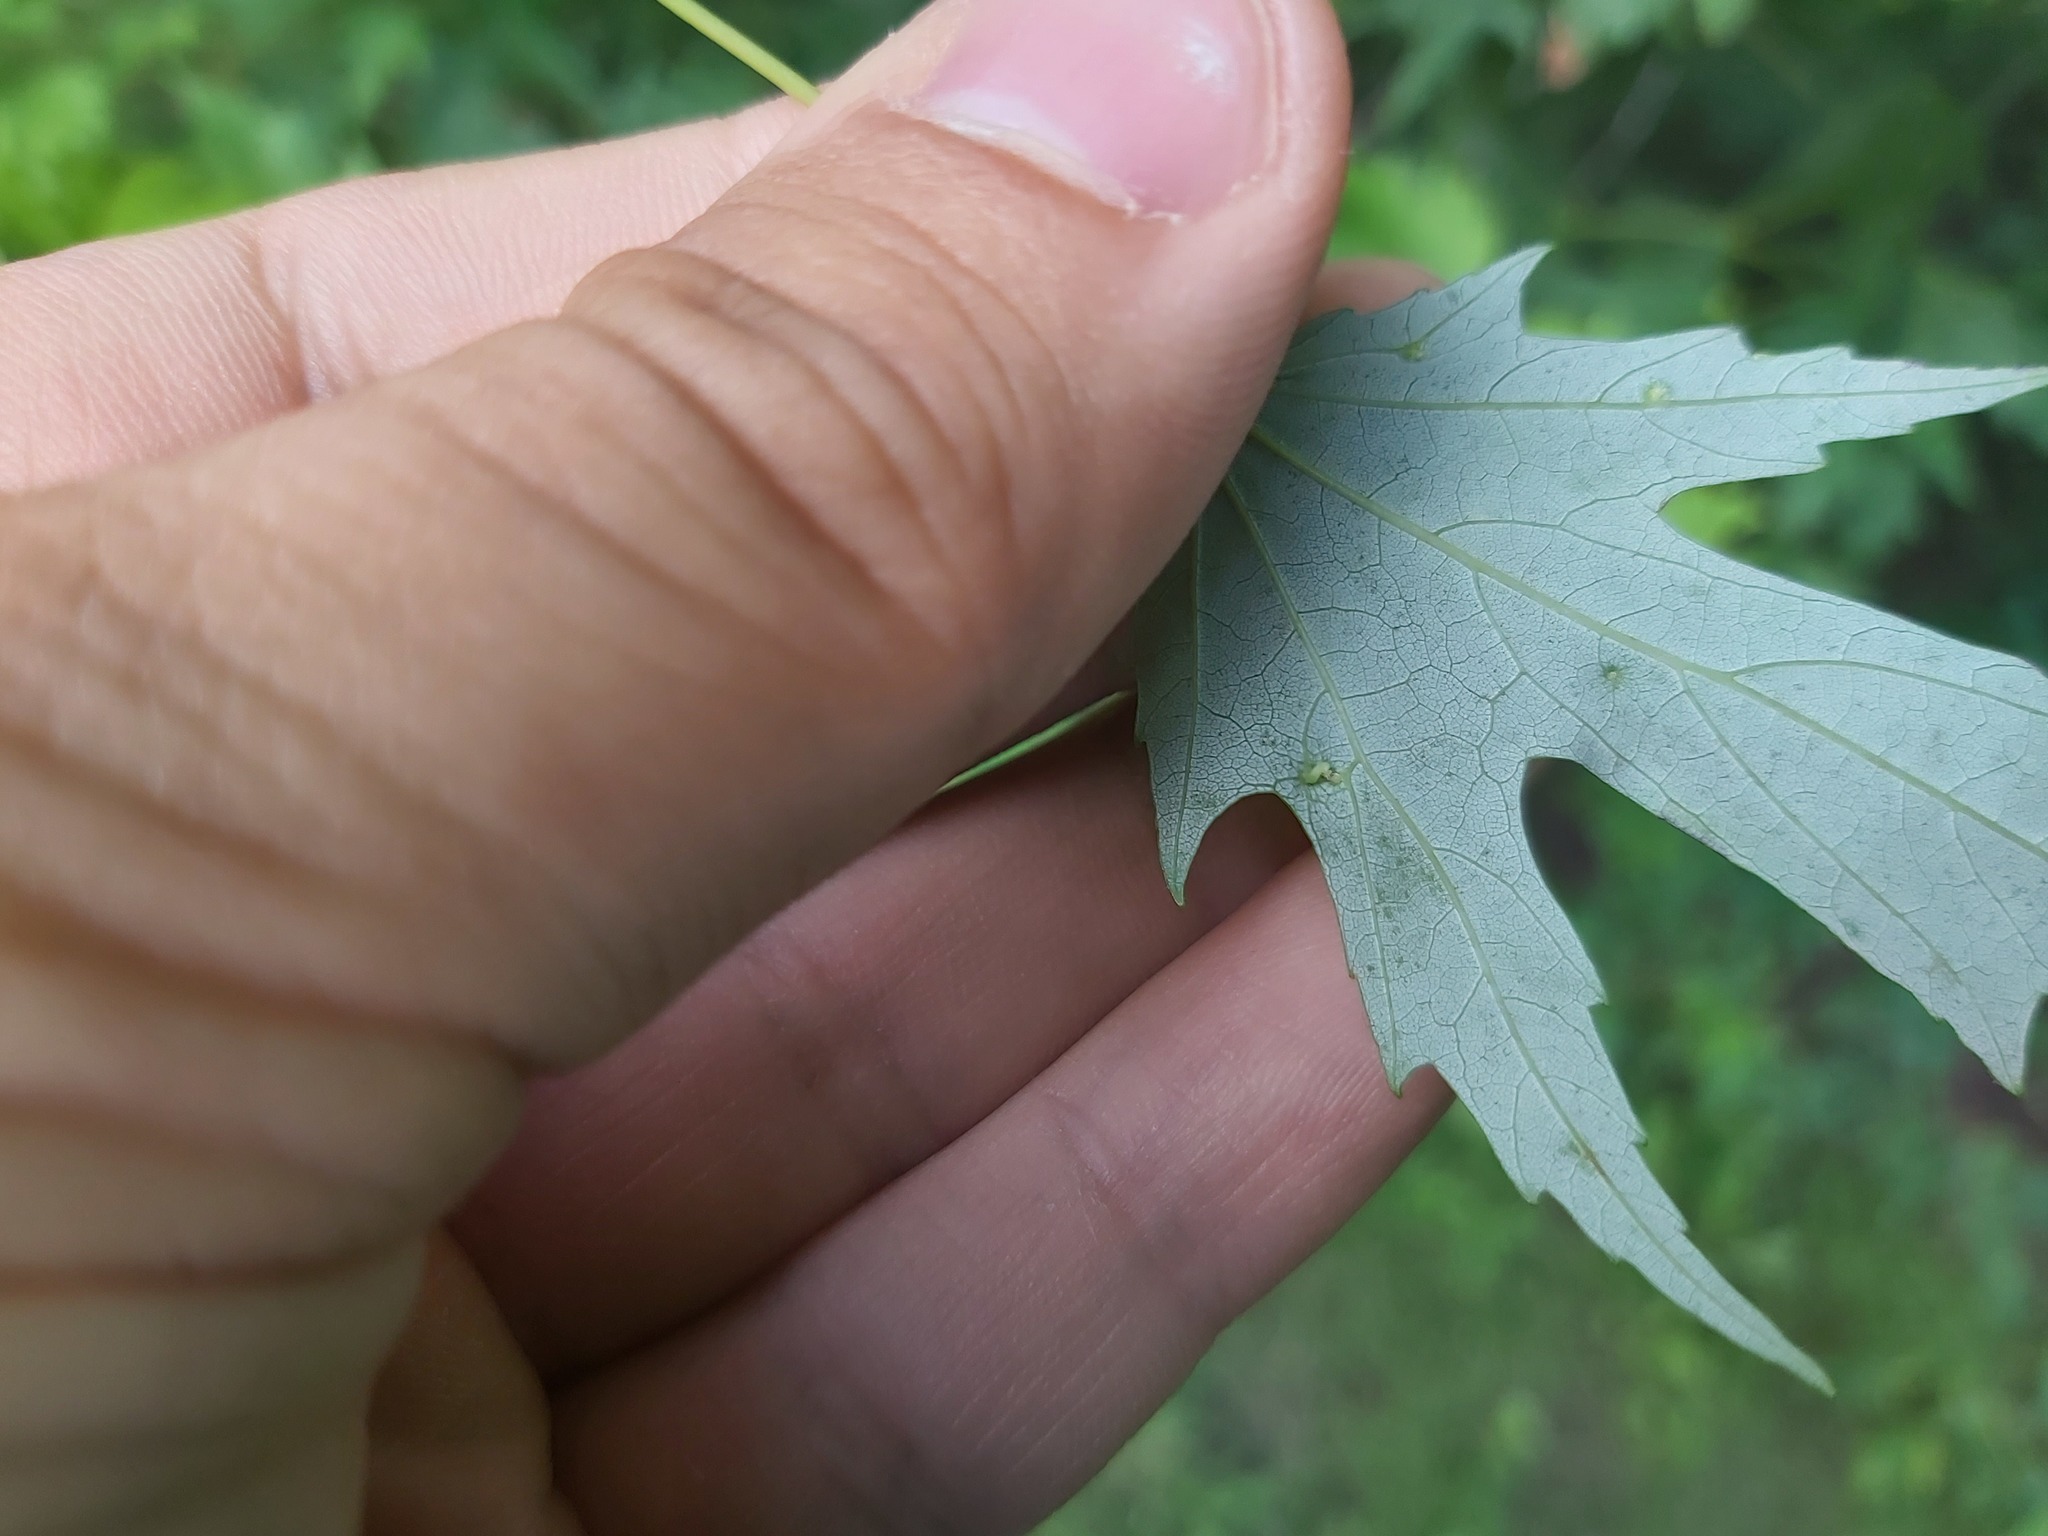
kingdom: Animalia
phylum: Arthropoda
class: Arachnida
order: Trombidiformes
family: Eriophyidae
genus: Vasates
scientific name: Vasates quadripedes
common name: Maple bladder gall mite
